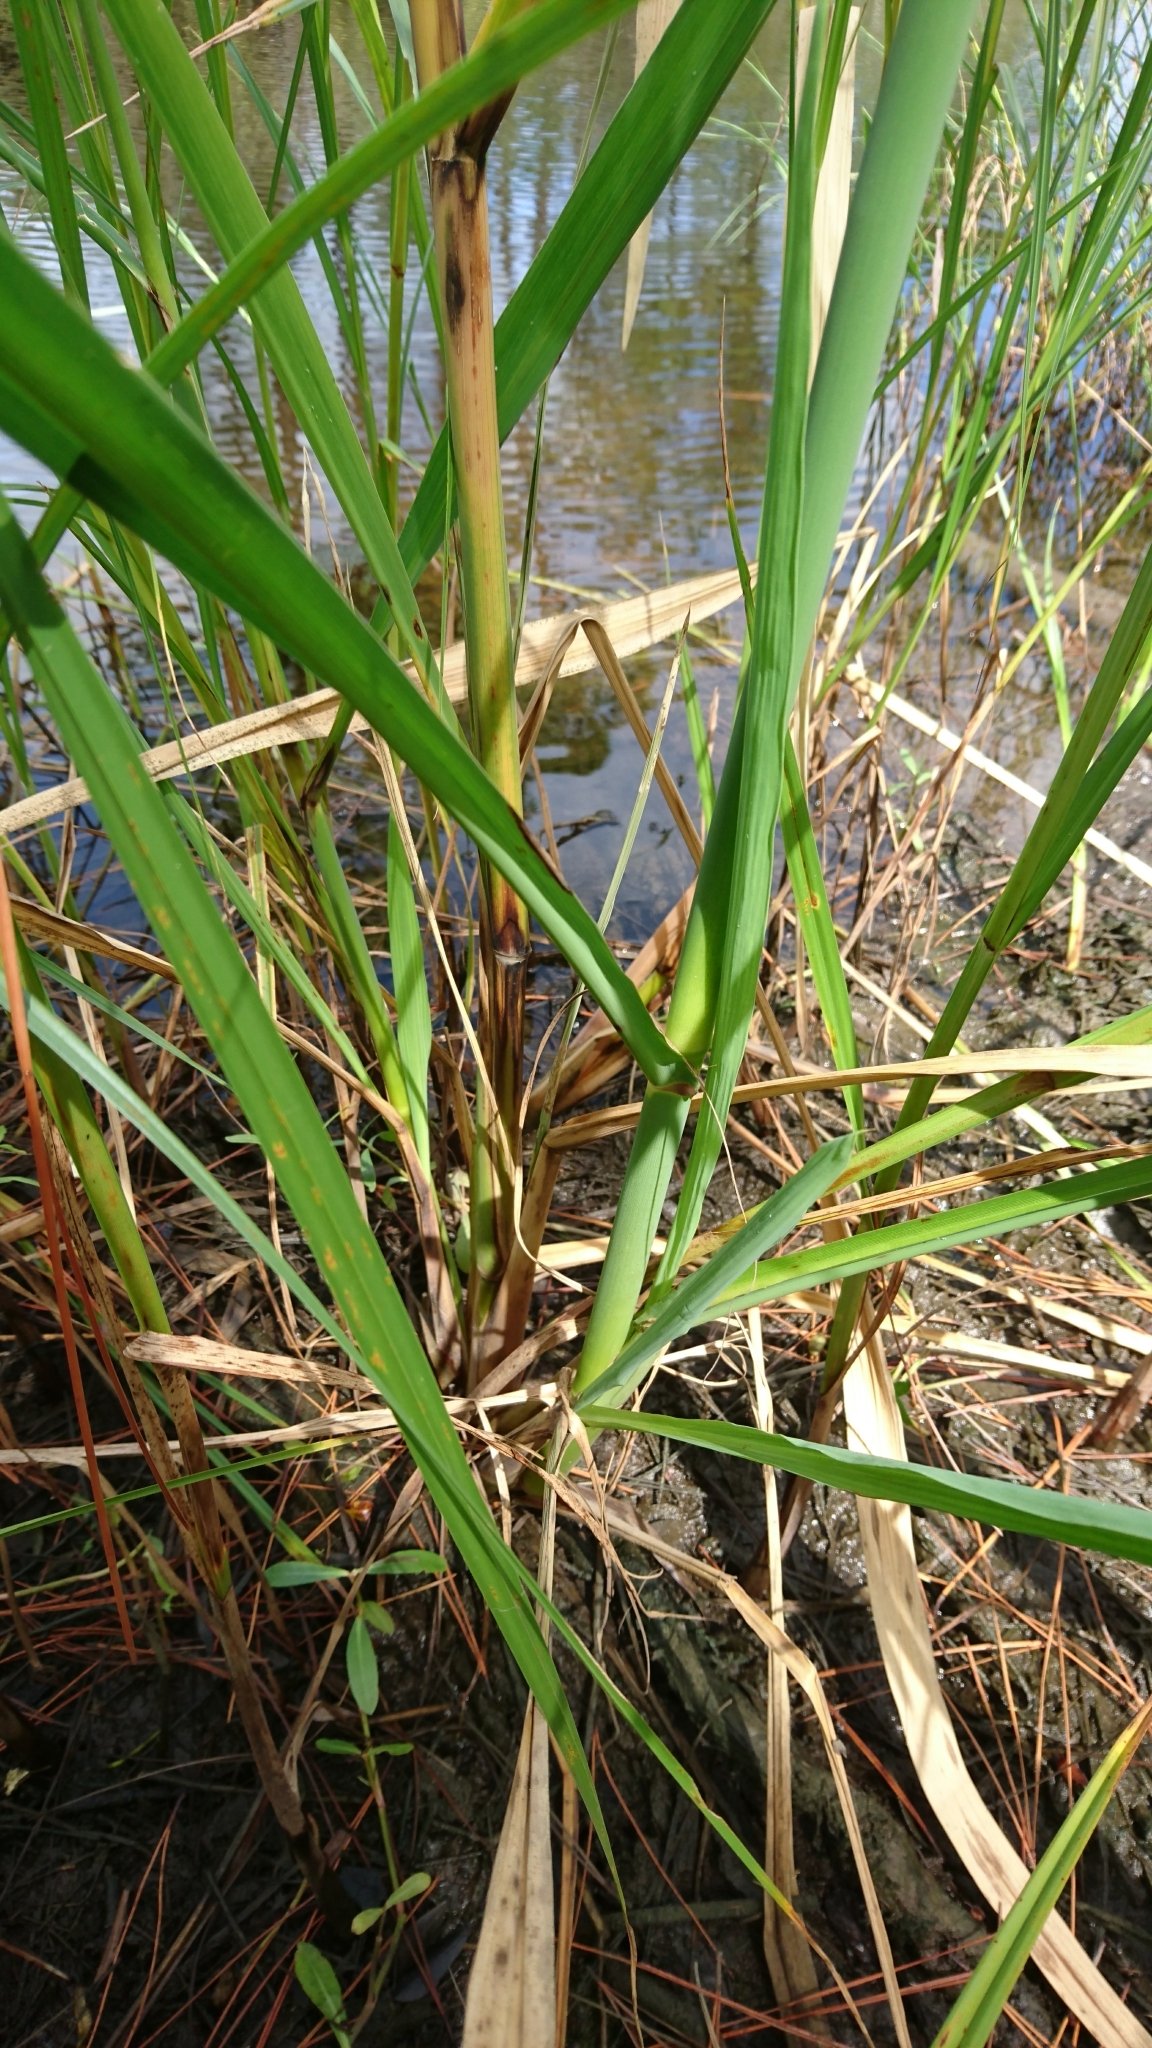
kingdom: Plantae
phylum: Tracheophyta
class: Liliopsida
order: Poales
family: Poaceae
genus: Zizania
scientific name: Zizania aquatica
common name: Annual wildrice
